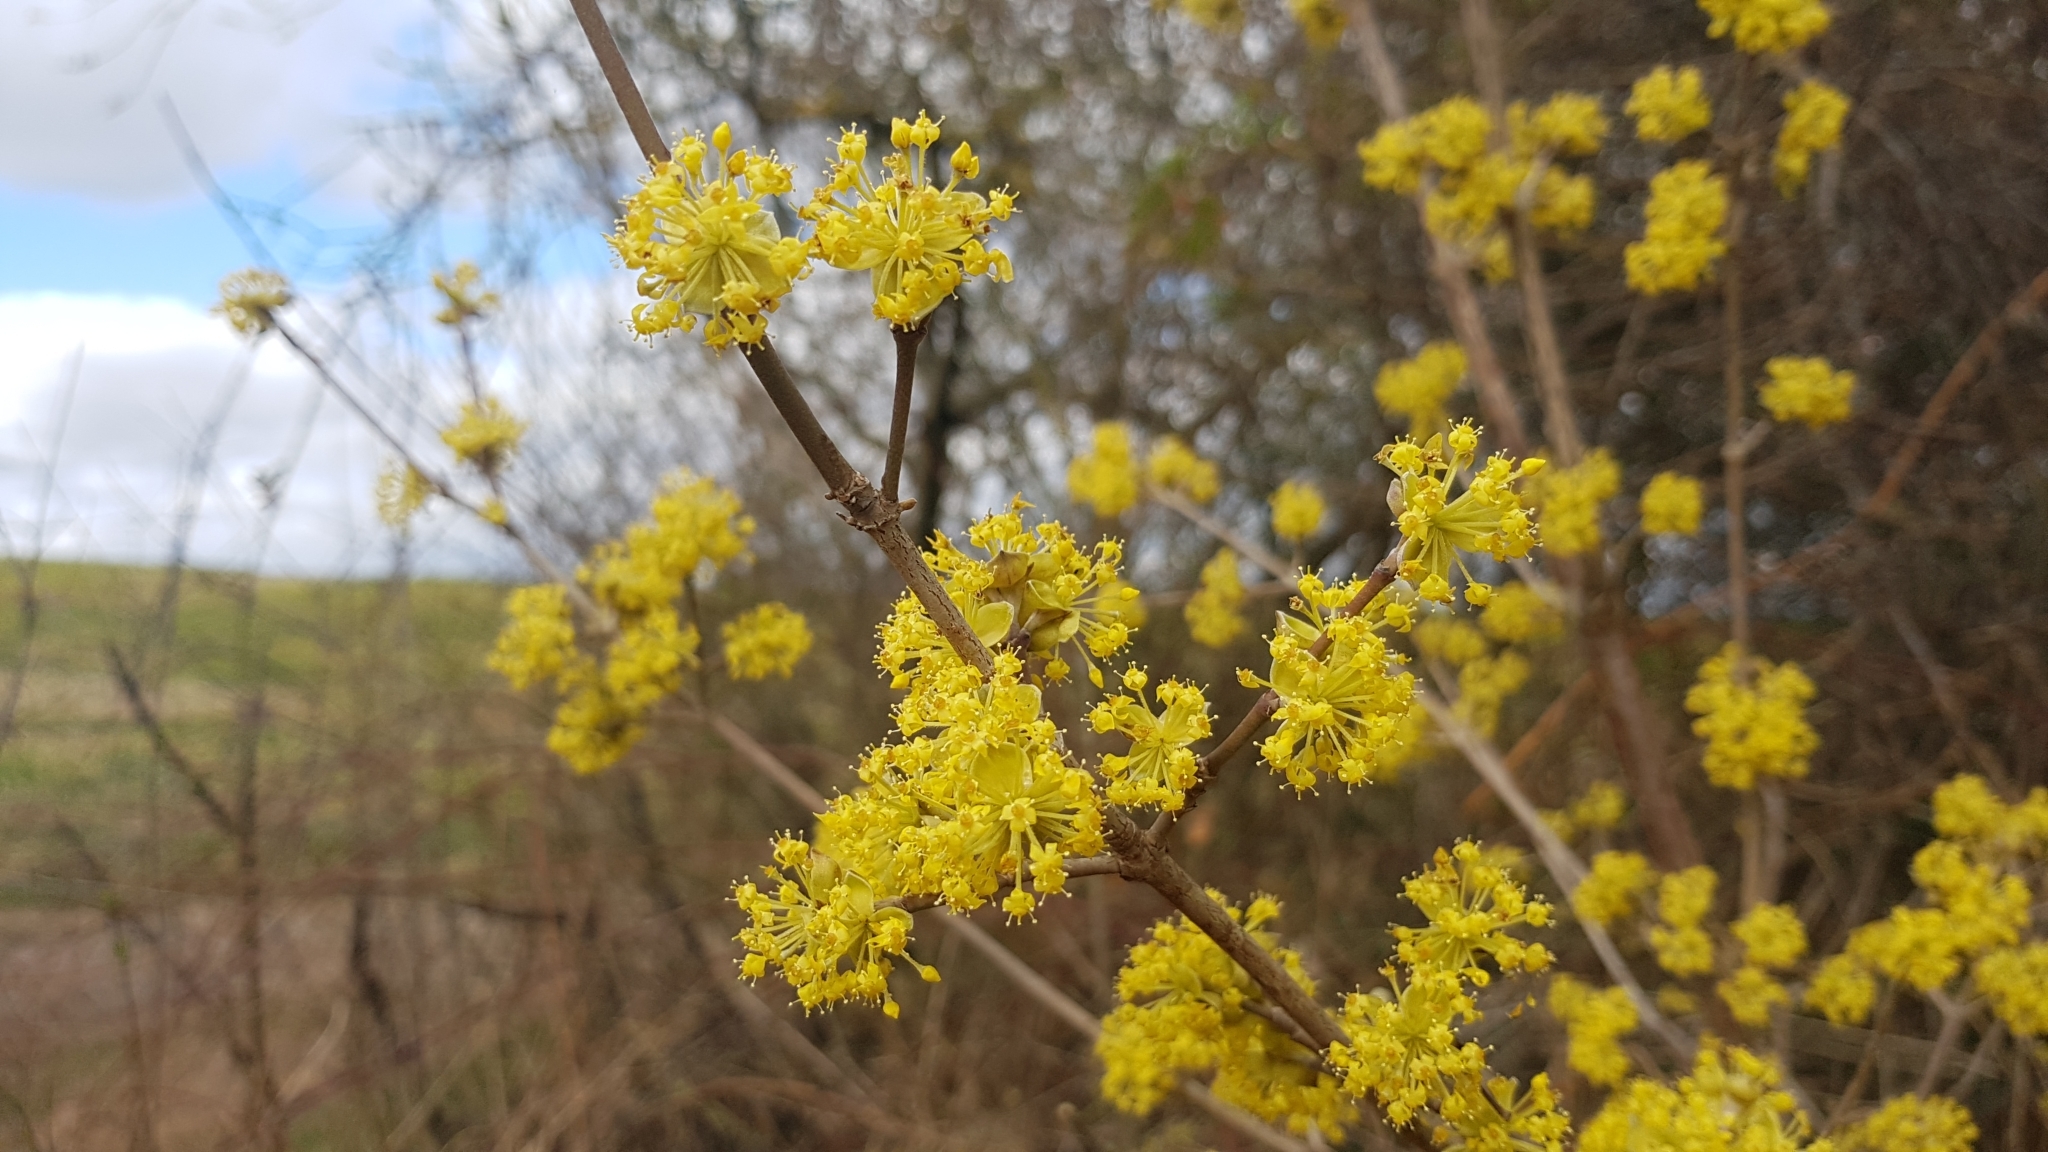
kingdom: Plantae
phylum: Tracheophyta
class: Magnoliopsida
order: Cornales
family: Cornaceae
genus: Cornus
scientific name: Cornus mas
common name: Cornelian-cherry
